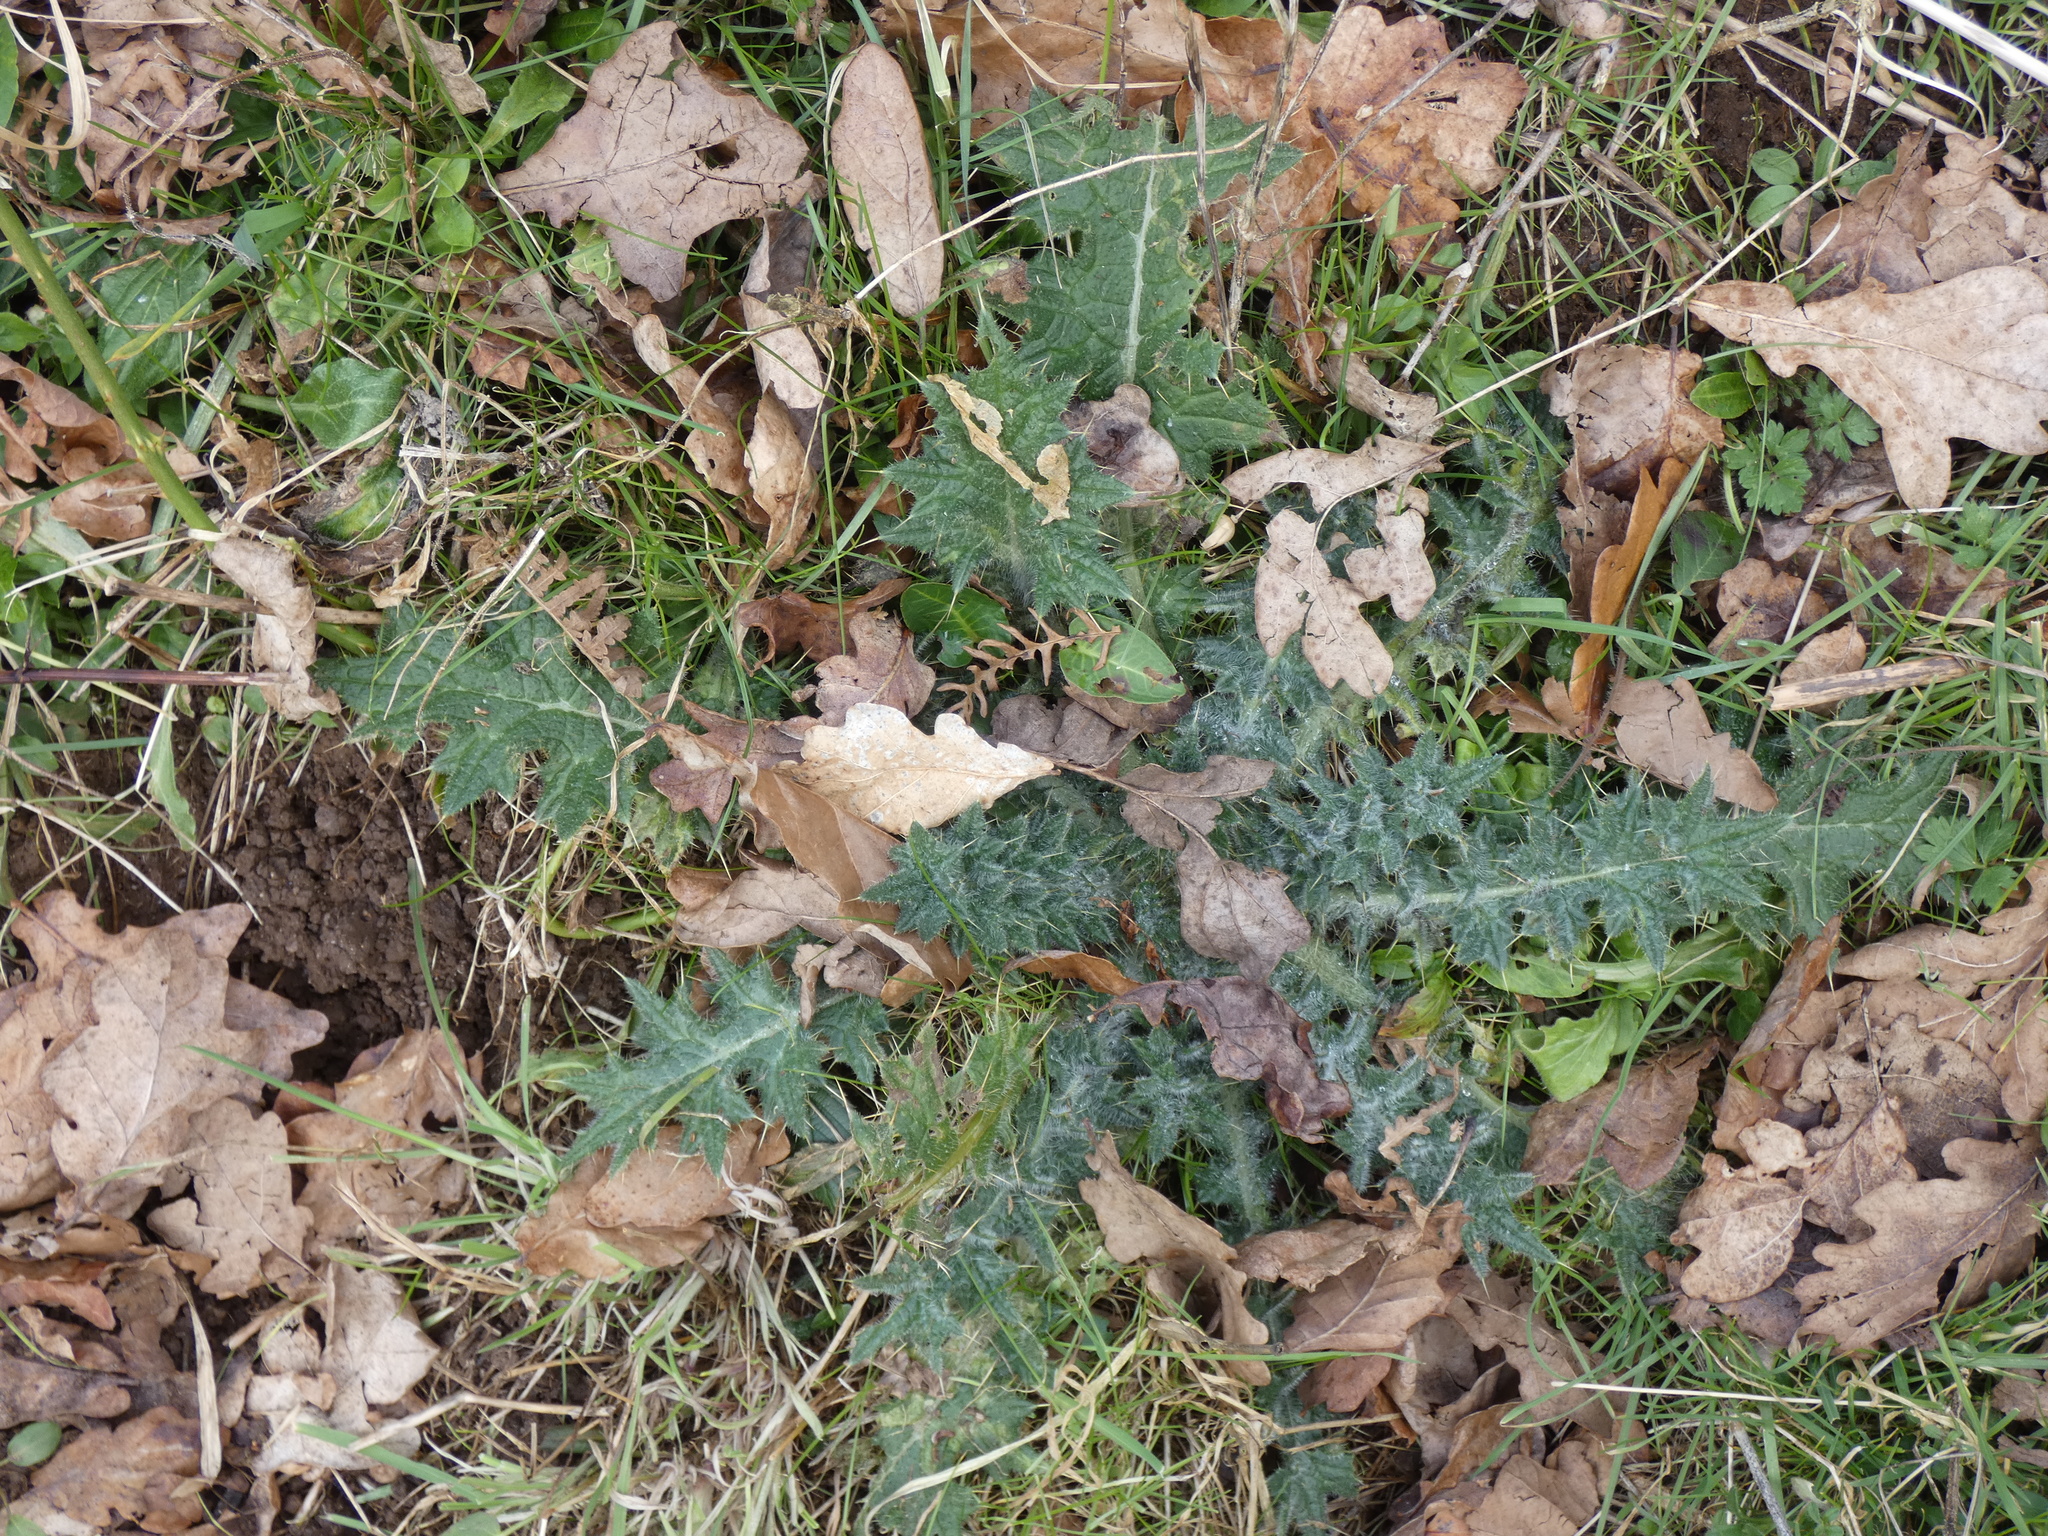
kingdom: Plantae
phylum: Tracheophyta
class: Magnoliopsida
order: Asterales
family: Asteraceae
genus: Cirsium
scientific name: Cirsium vulgare
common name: Bull thistle
